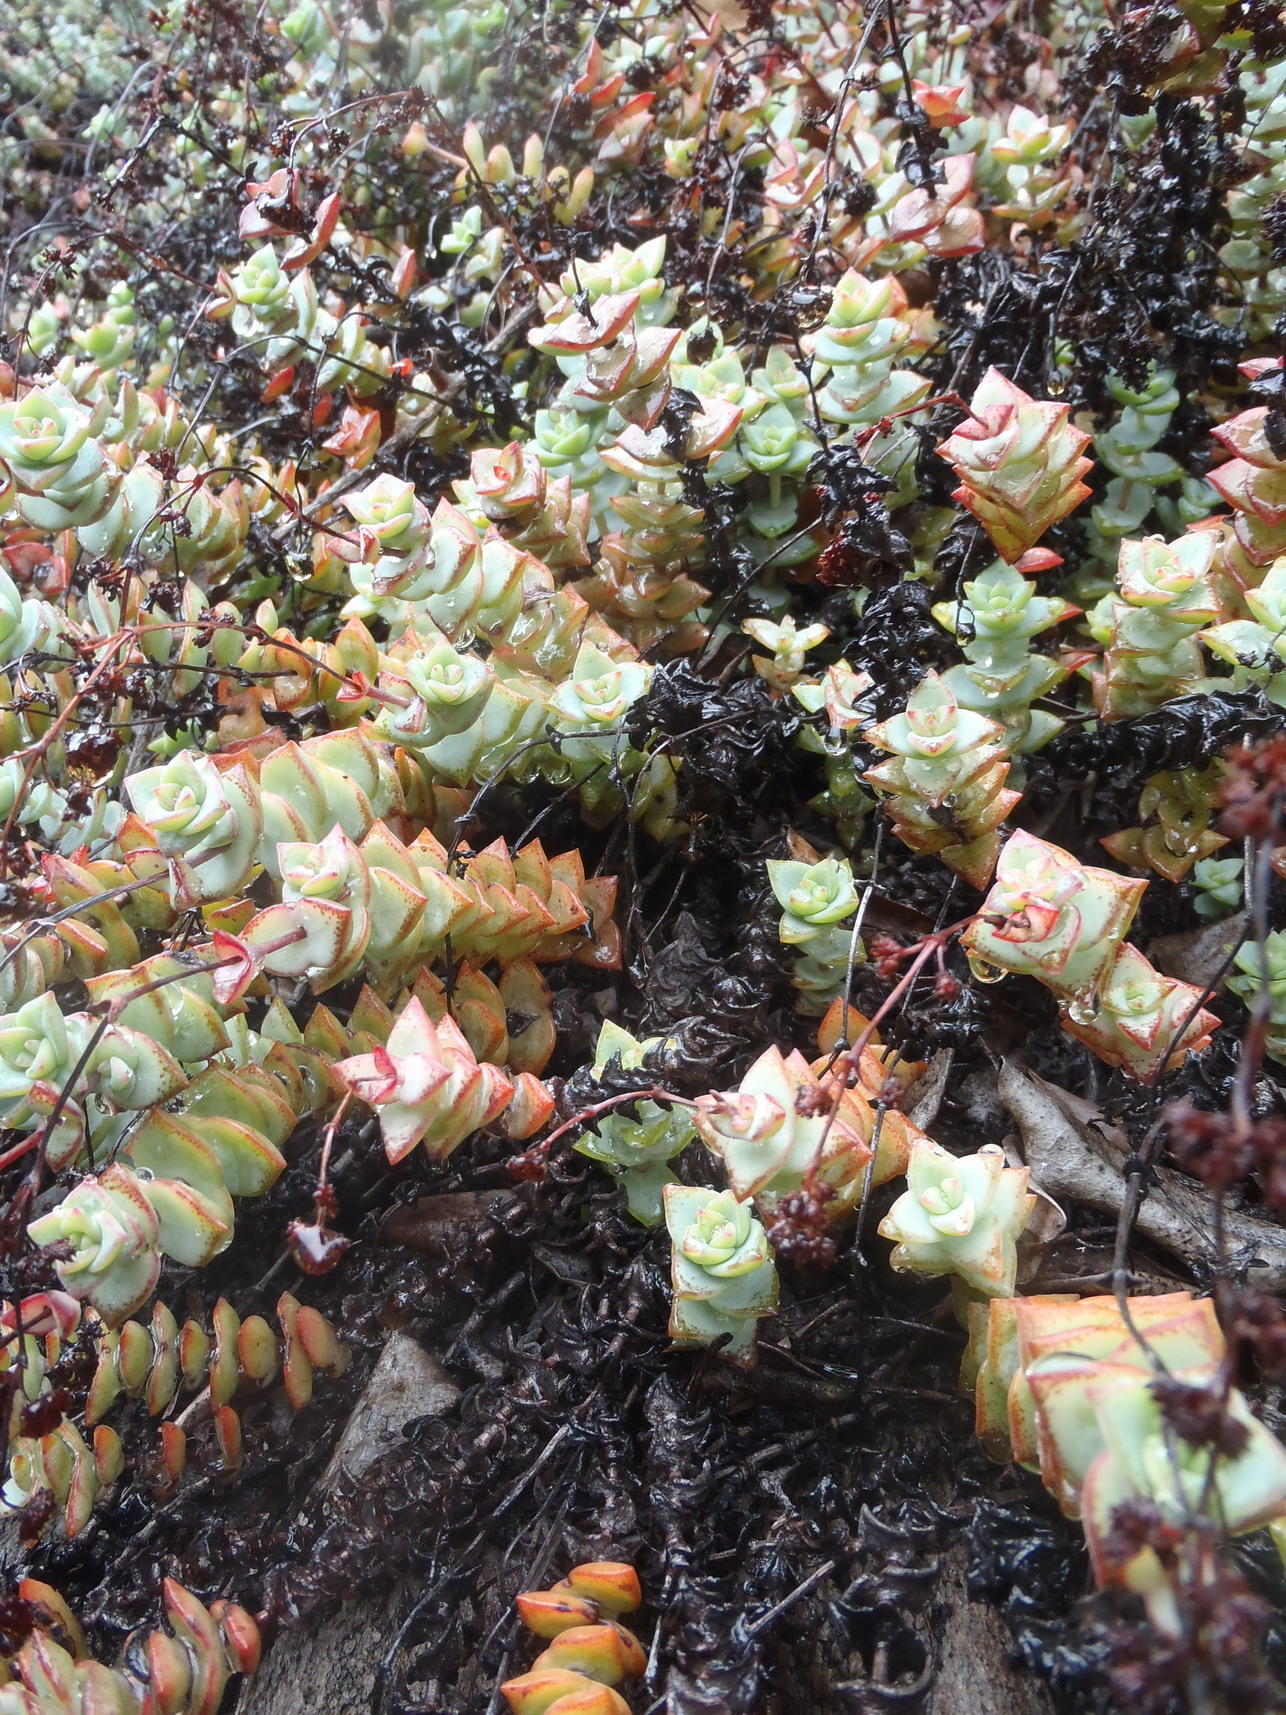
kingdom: Plantae
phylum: Tracheophyta
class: Magnoliopsida
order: Saxifragales
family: Crassulaceae
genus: Crassula
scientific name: Crassula perforata
